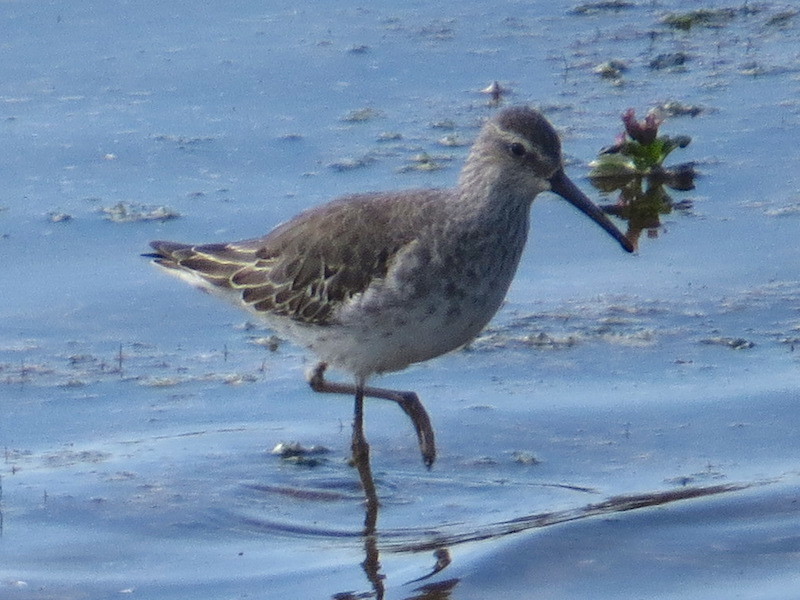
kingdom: Animalia
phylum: Chordata
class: Aves
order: Charadriiformes
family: Scolopacidae
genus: Calidris
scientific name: Calidris himantopus
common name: Stilt sandpiper
